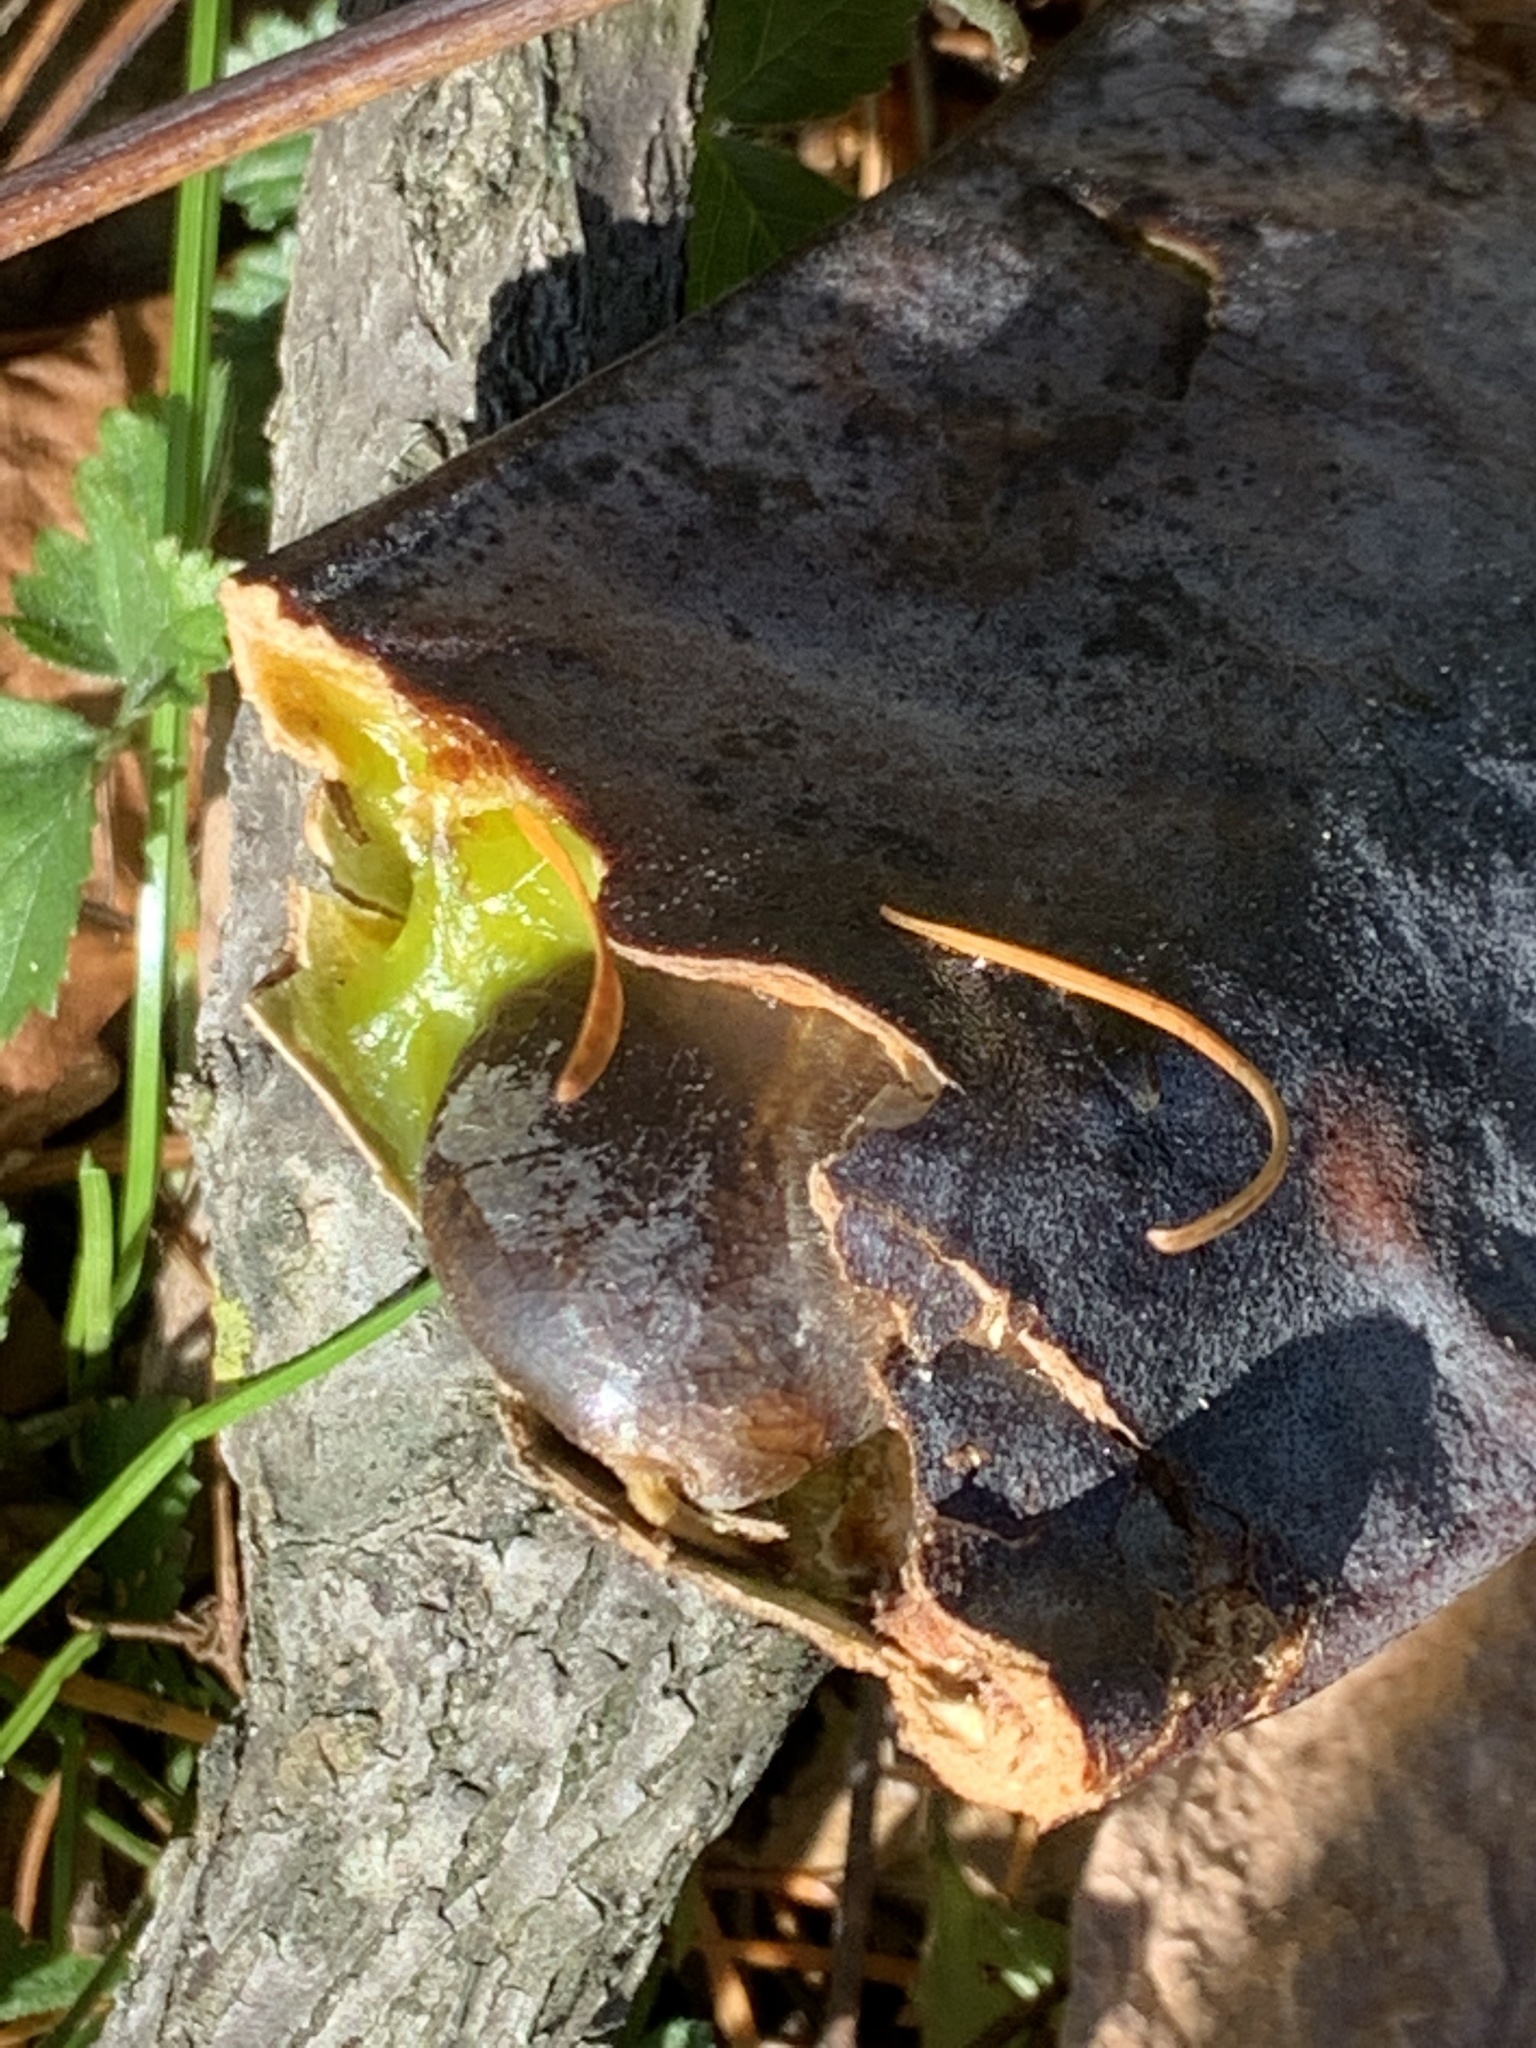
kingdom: Plantae
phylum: Tracheophyta
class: Magnoliopsida
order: Fabales
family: Fabaceae
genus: Gymnocladus
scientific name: Gymnocladus dioicus
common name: Kentucky coffee-tree
